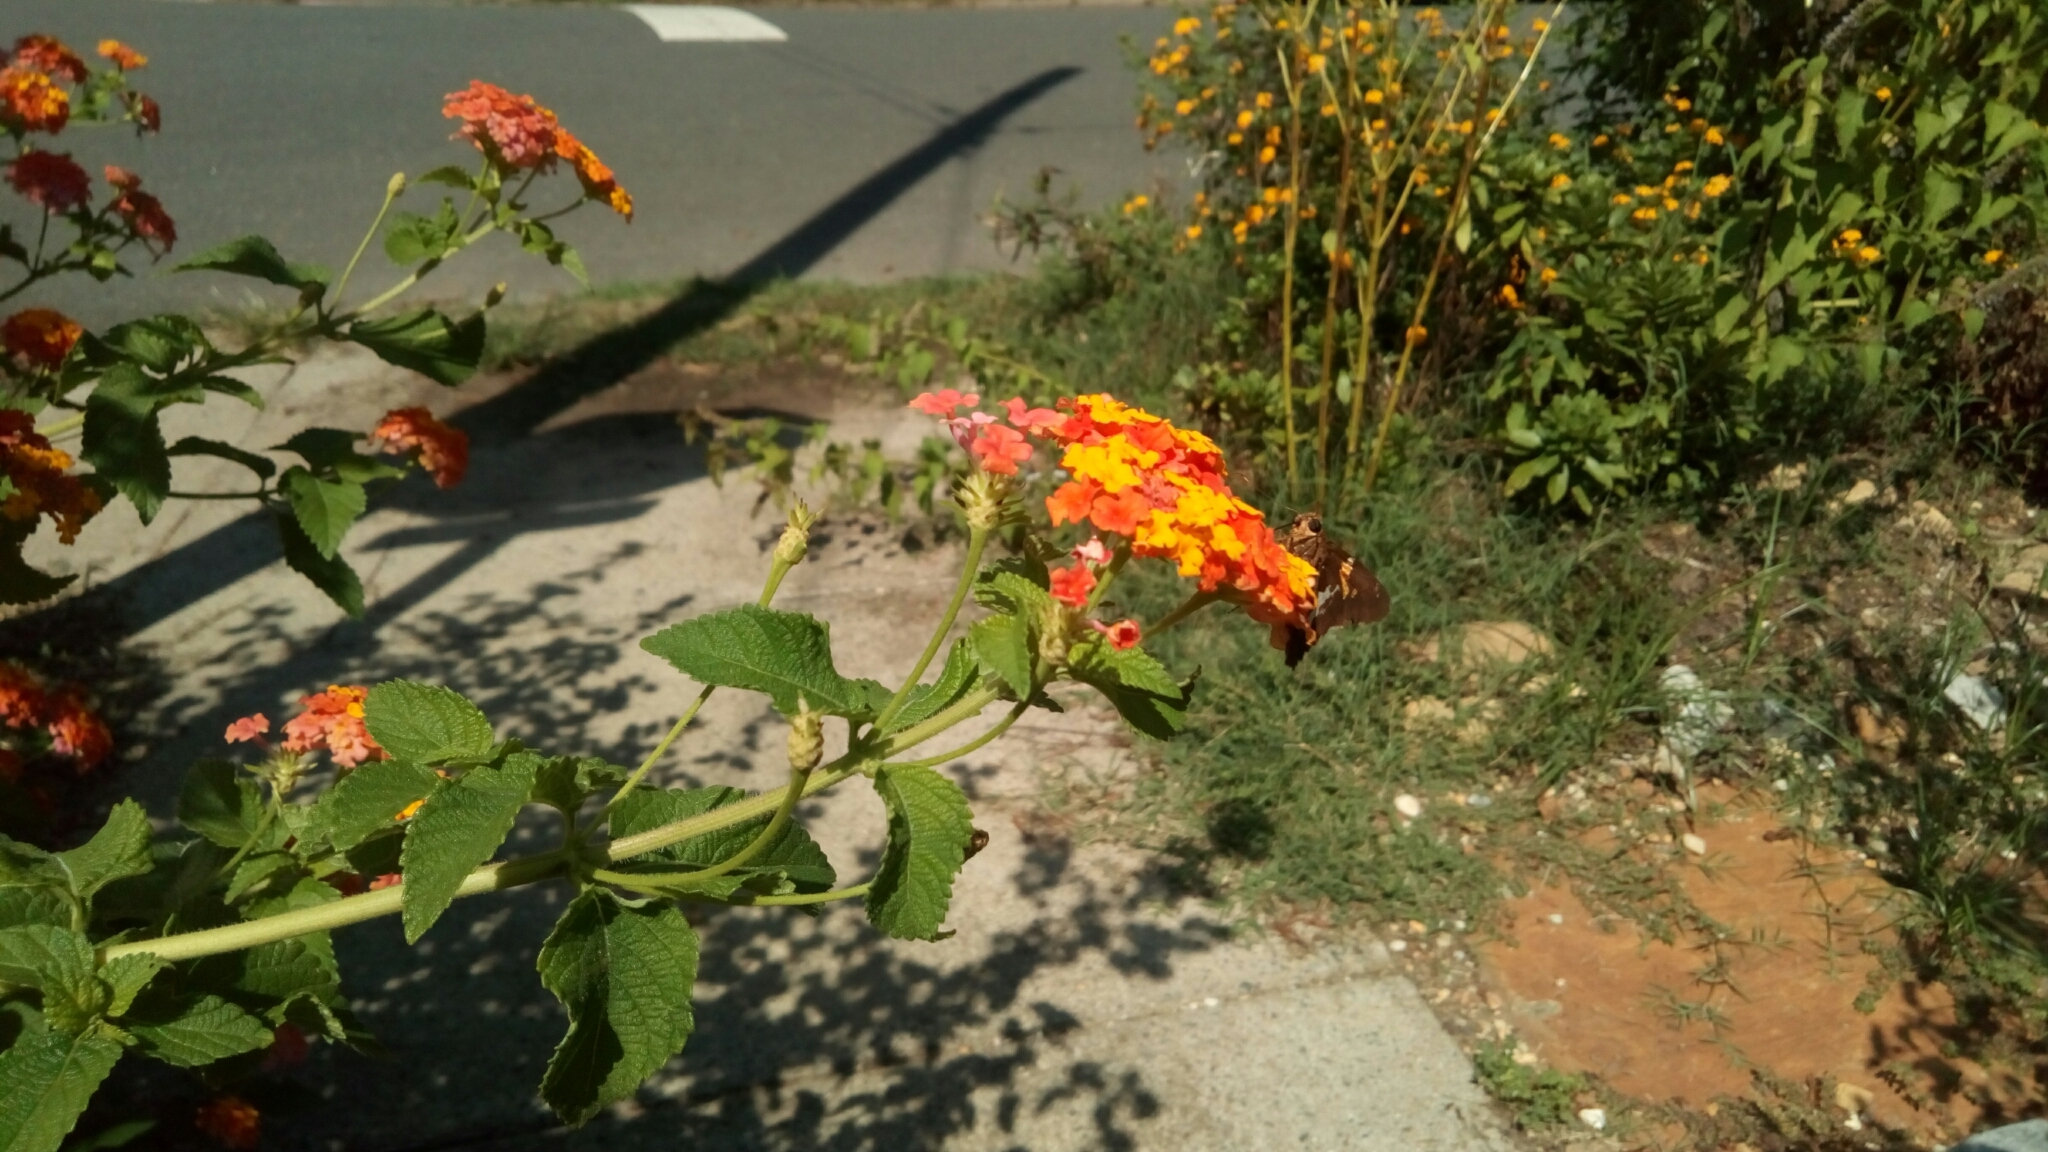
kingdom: Animalia
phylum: Arthropoda
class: Insecta
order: Lepidoptera
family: Hesperiidae
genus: Epargyreus
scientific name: Epargyreus clarus
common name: Silver-spotted skipper
